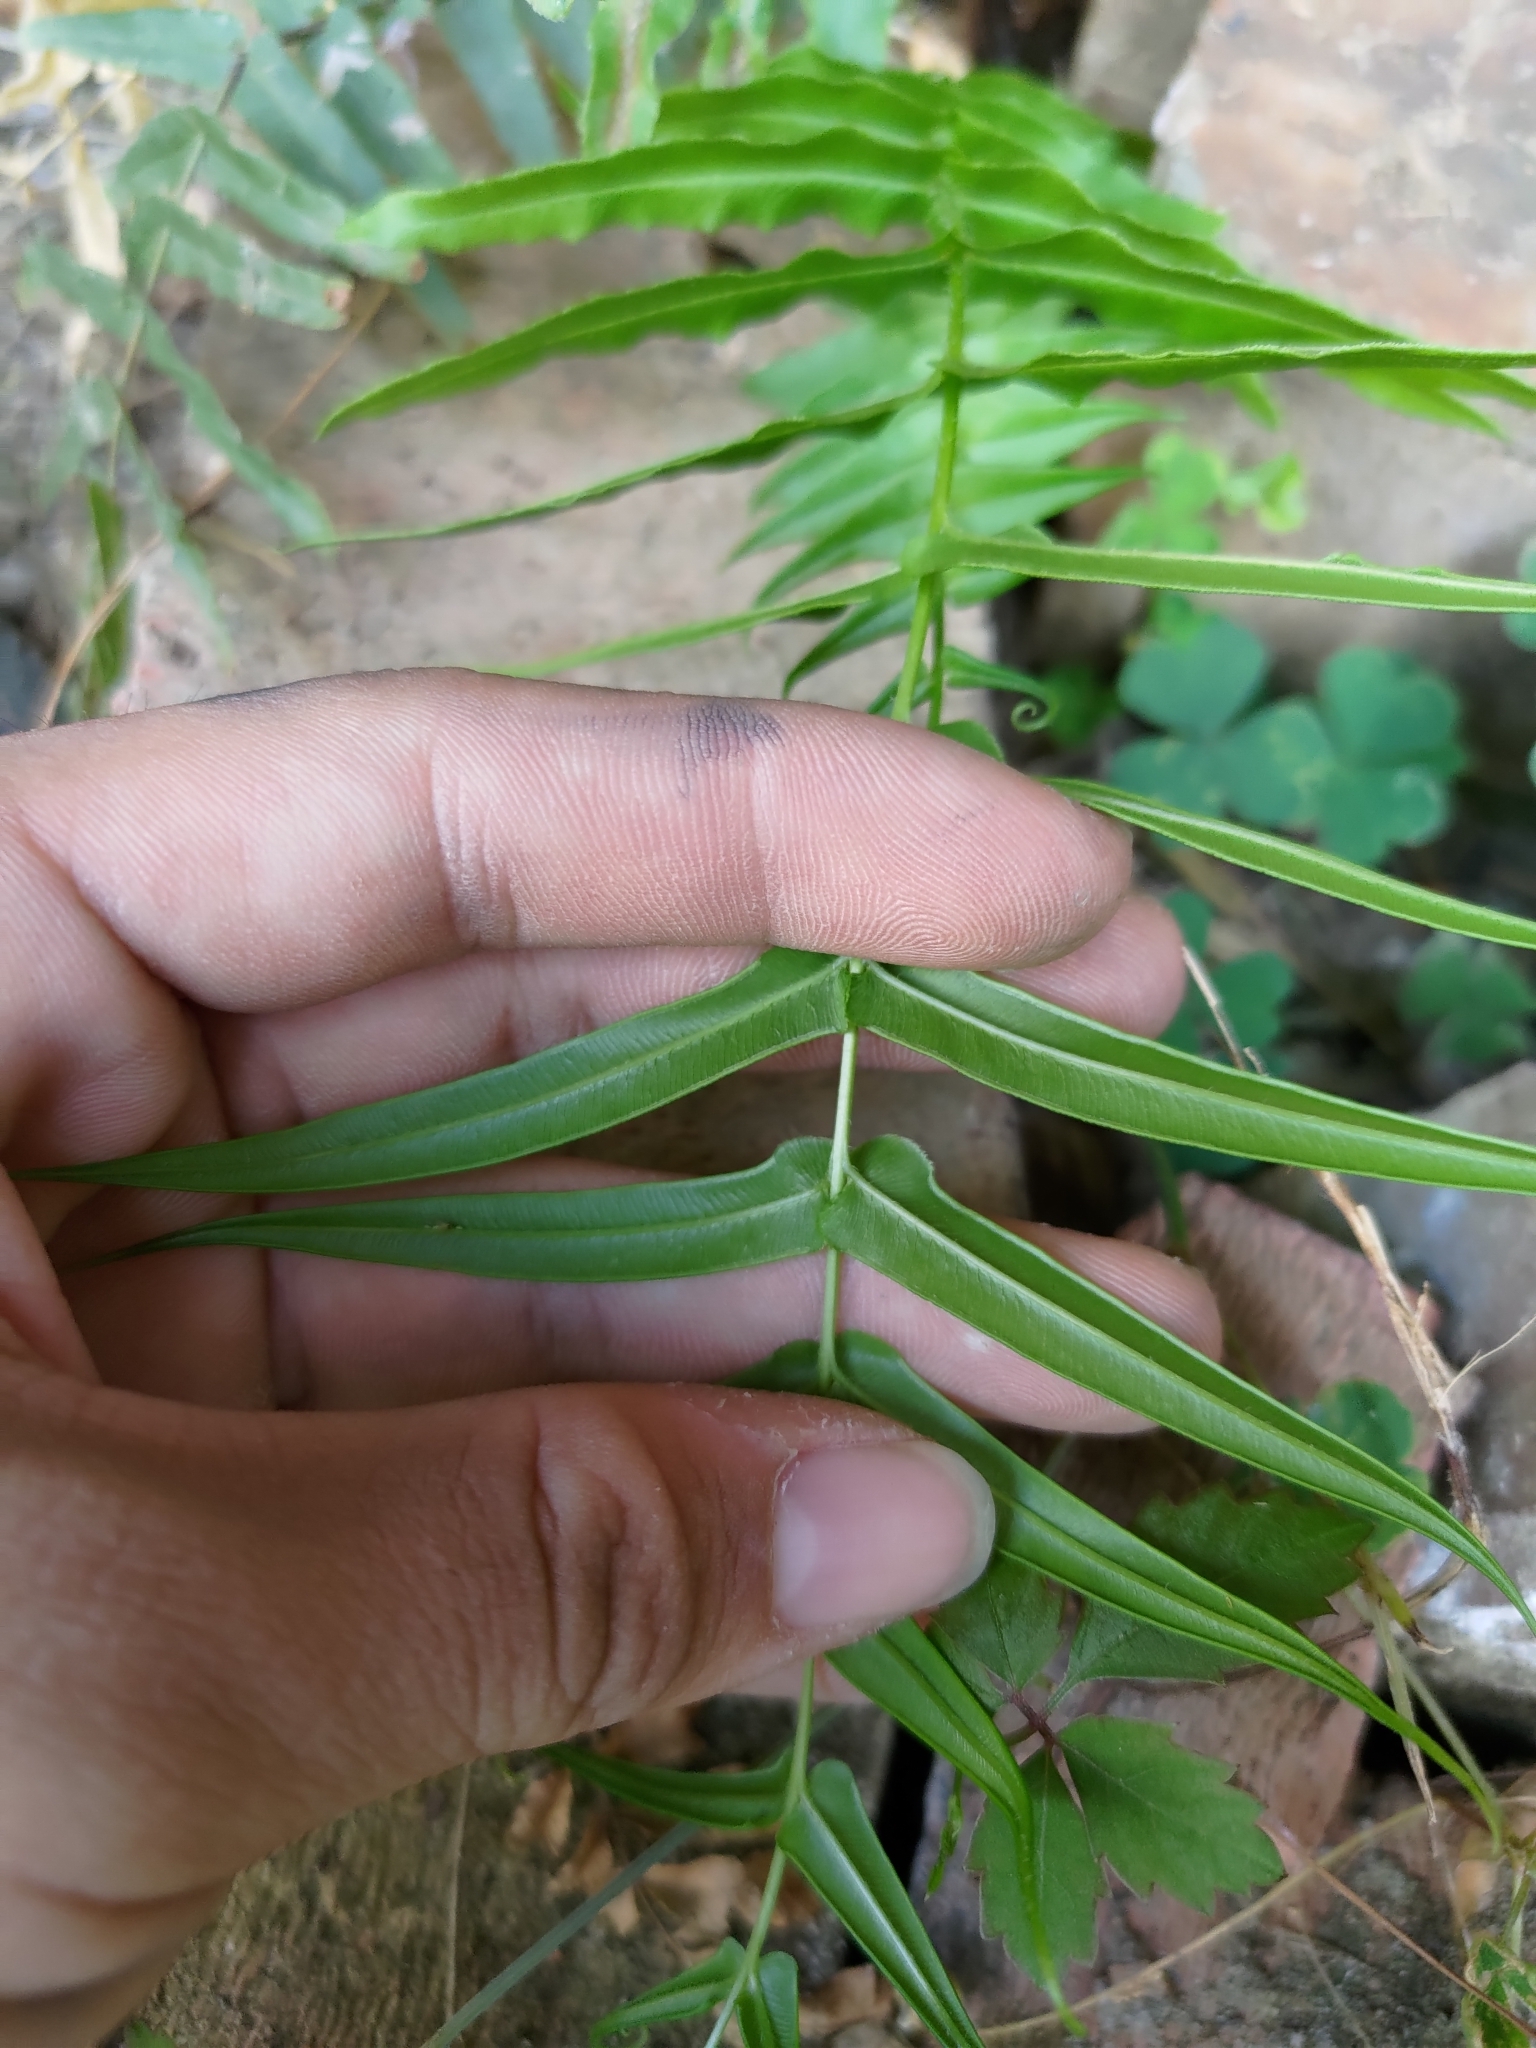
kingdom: Plantae
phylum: Tracheophyta
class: Polypodiopsida
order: Polypodiales
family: Pteridaceae
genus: Pteris
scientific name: Pteris vittata
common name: Ladder brake
